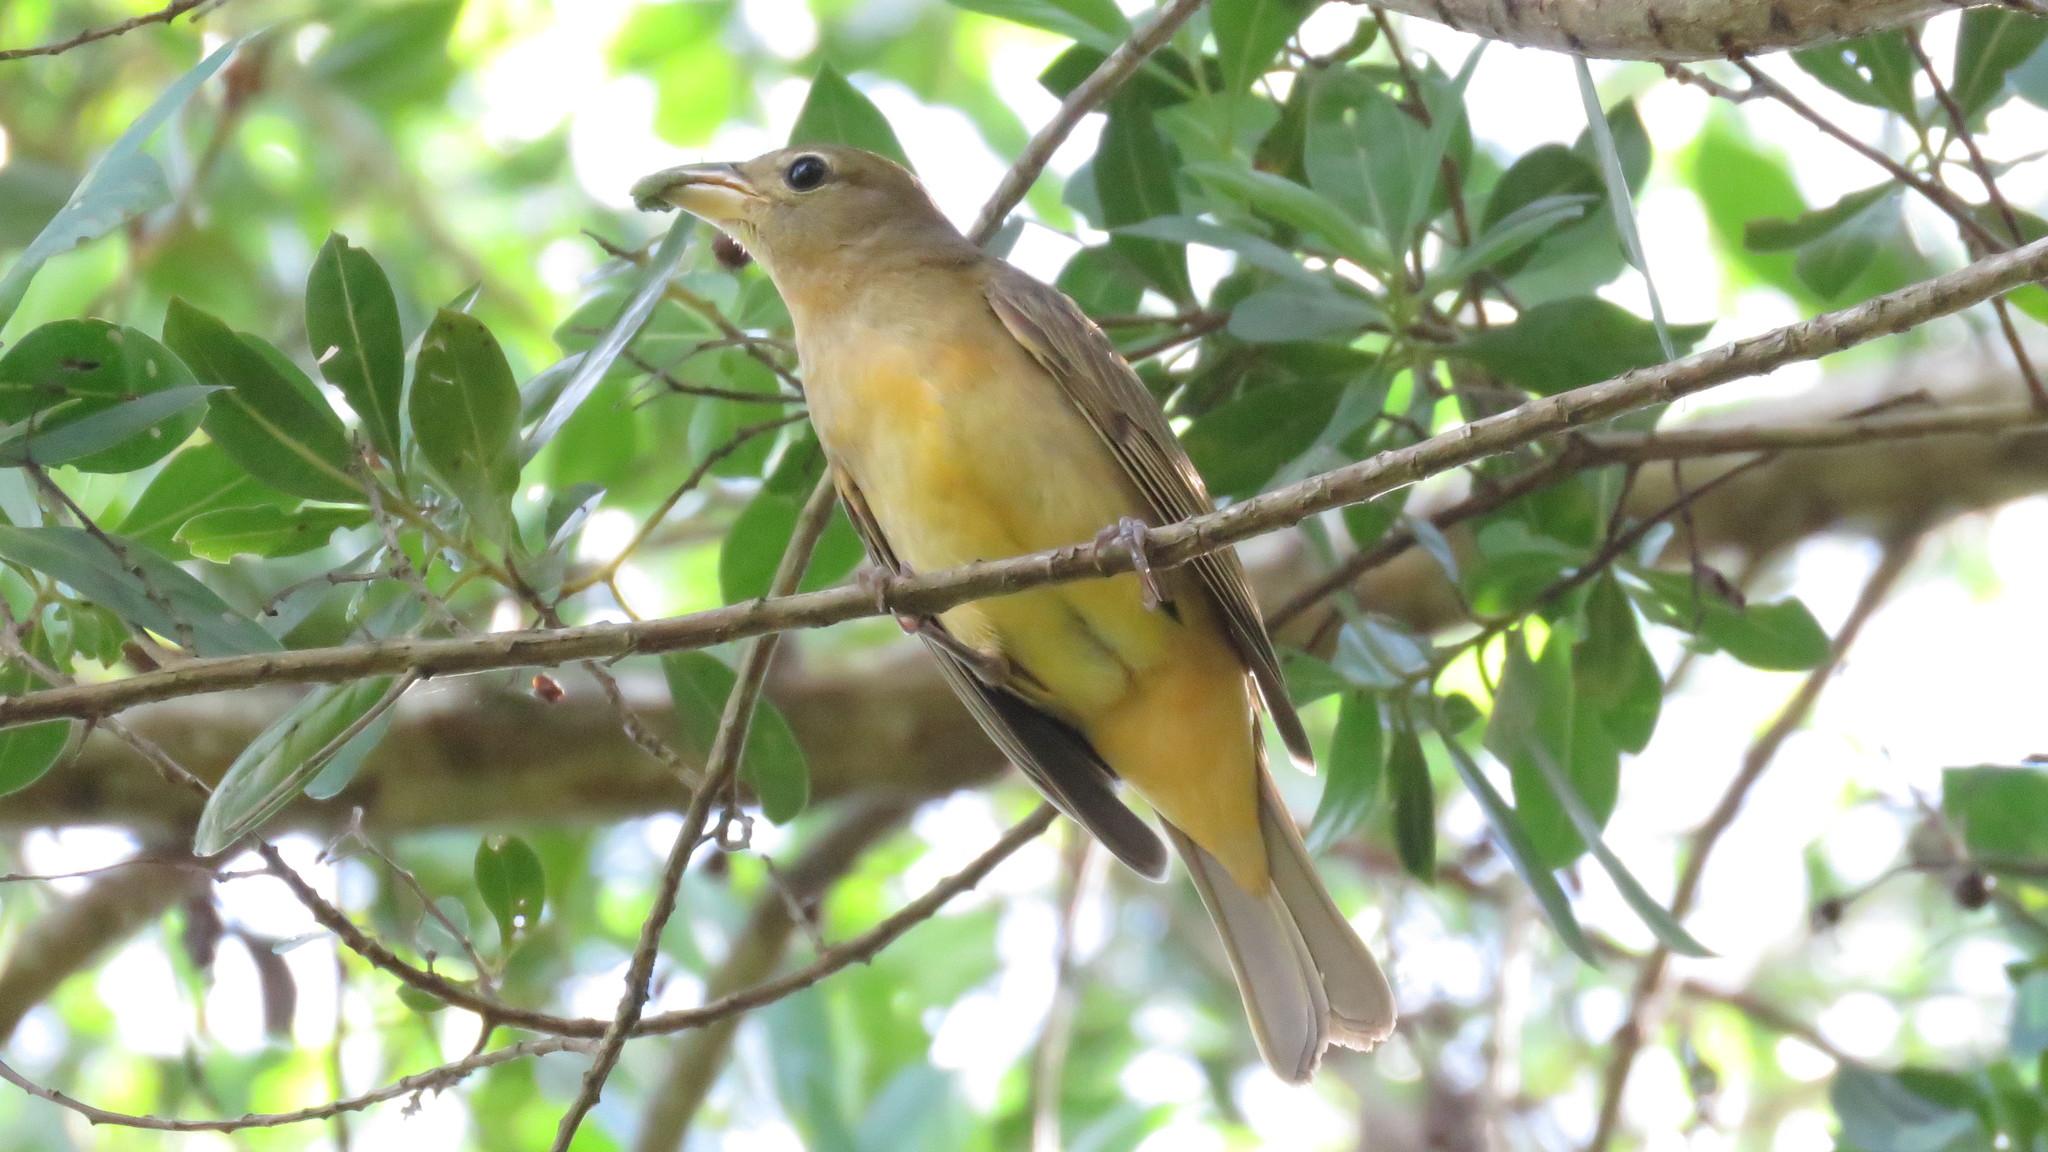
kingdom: Animalia
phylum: Chordata
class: Aves
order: Passeriformes
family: Cardinalidae
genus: Piranga
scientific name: Piranga rubra
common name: Summer tanager
